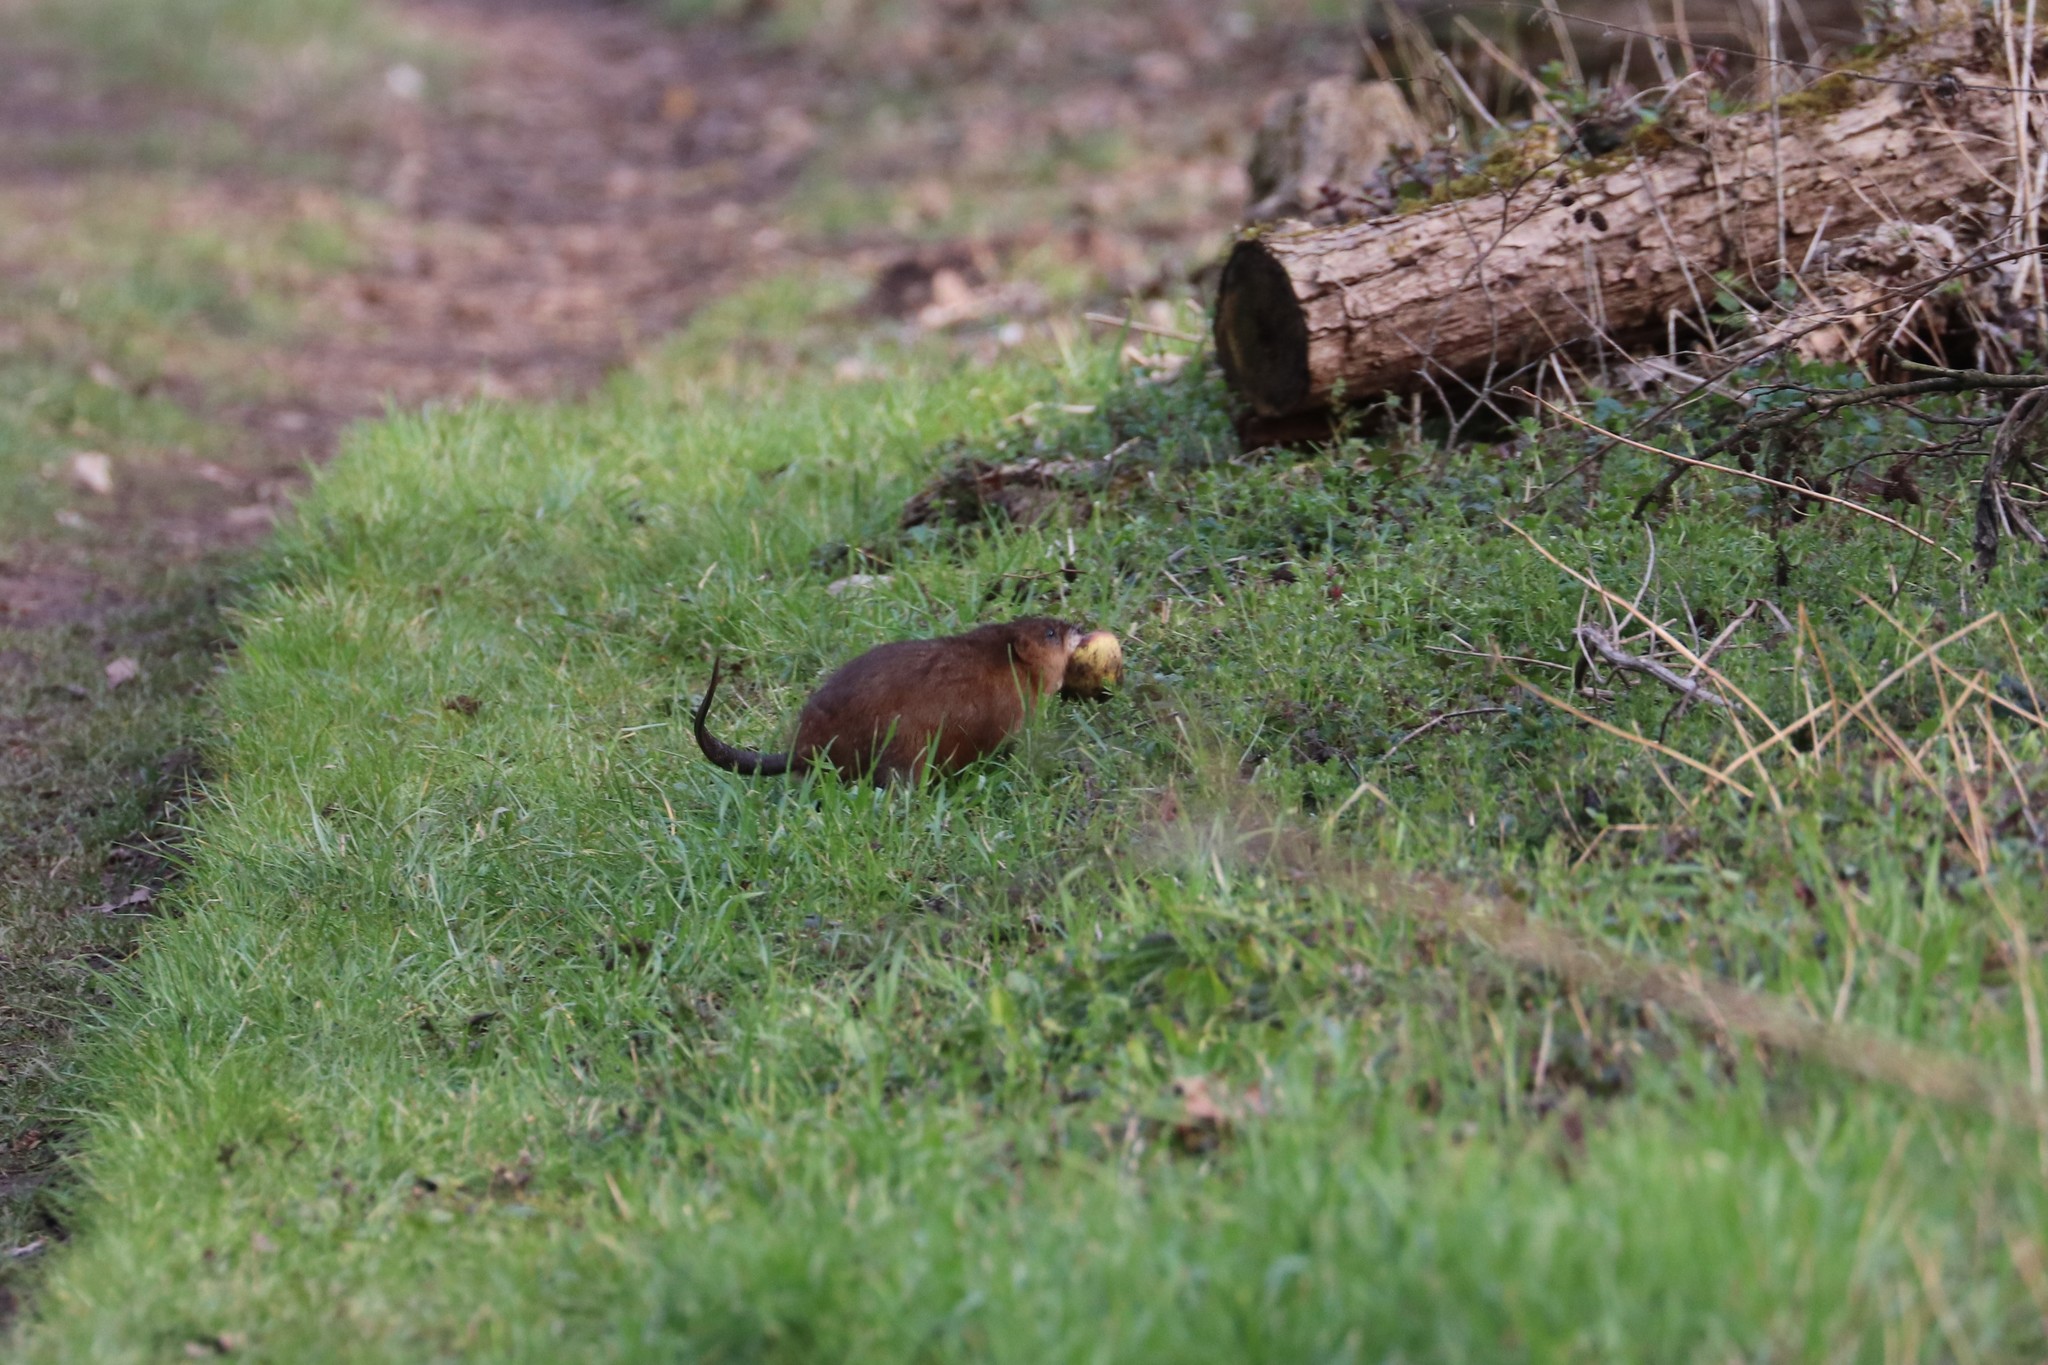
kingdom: Animalia
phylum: Chordata
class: Mammalia
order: Rodentia
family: Cricetidae
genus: Ondatra
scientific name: Ondatra zibethicus
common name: Muskrat
